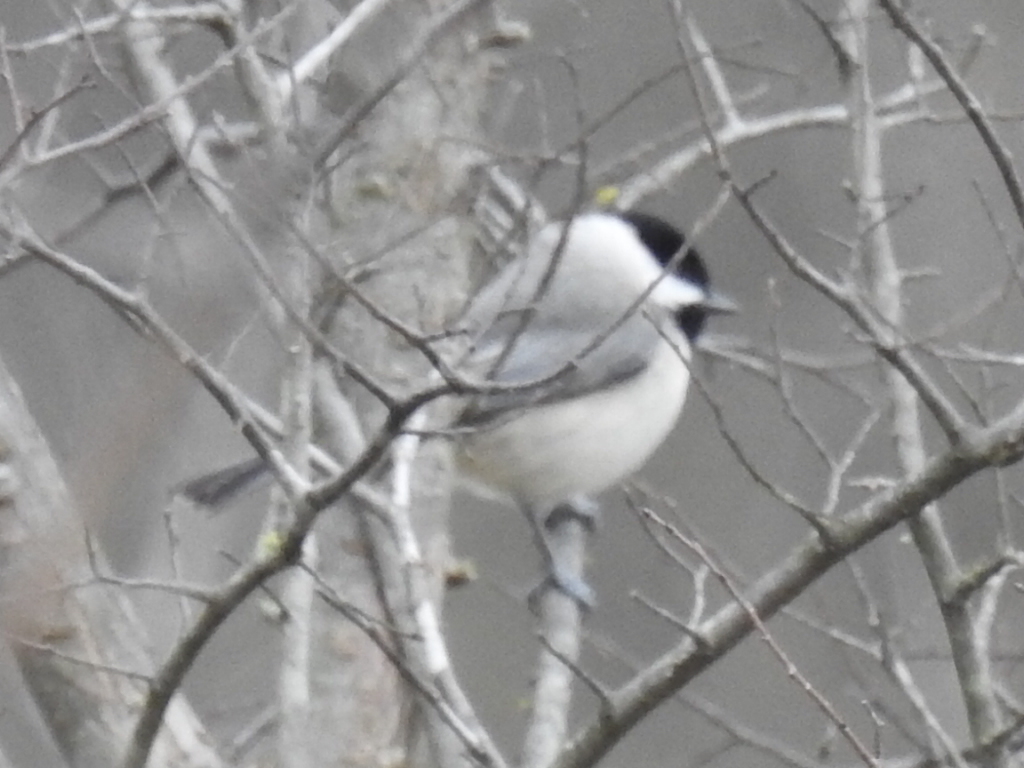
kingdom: Animalia
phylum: Chordata
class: Aves
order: Passeriformes
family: Paridae
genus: Poecile
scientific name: Poecile carolinensis
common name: Carolina chickadee
